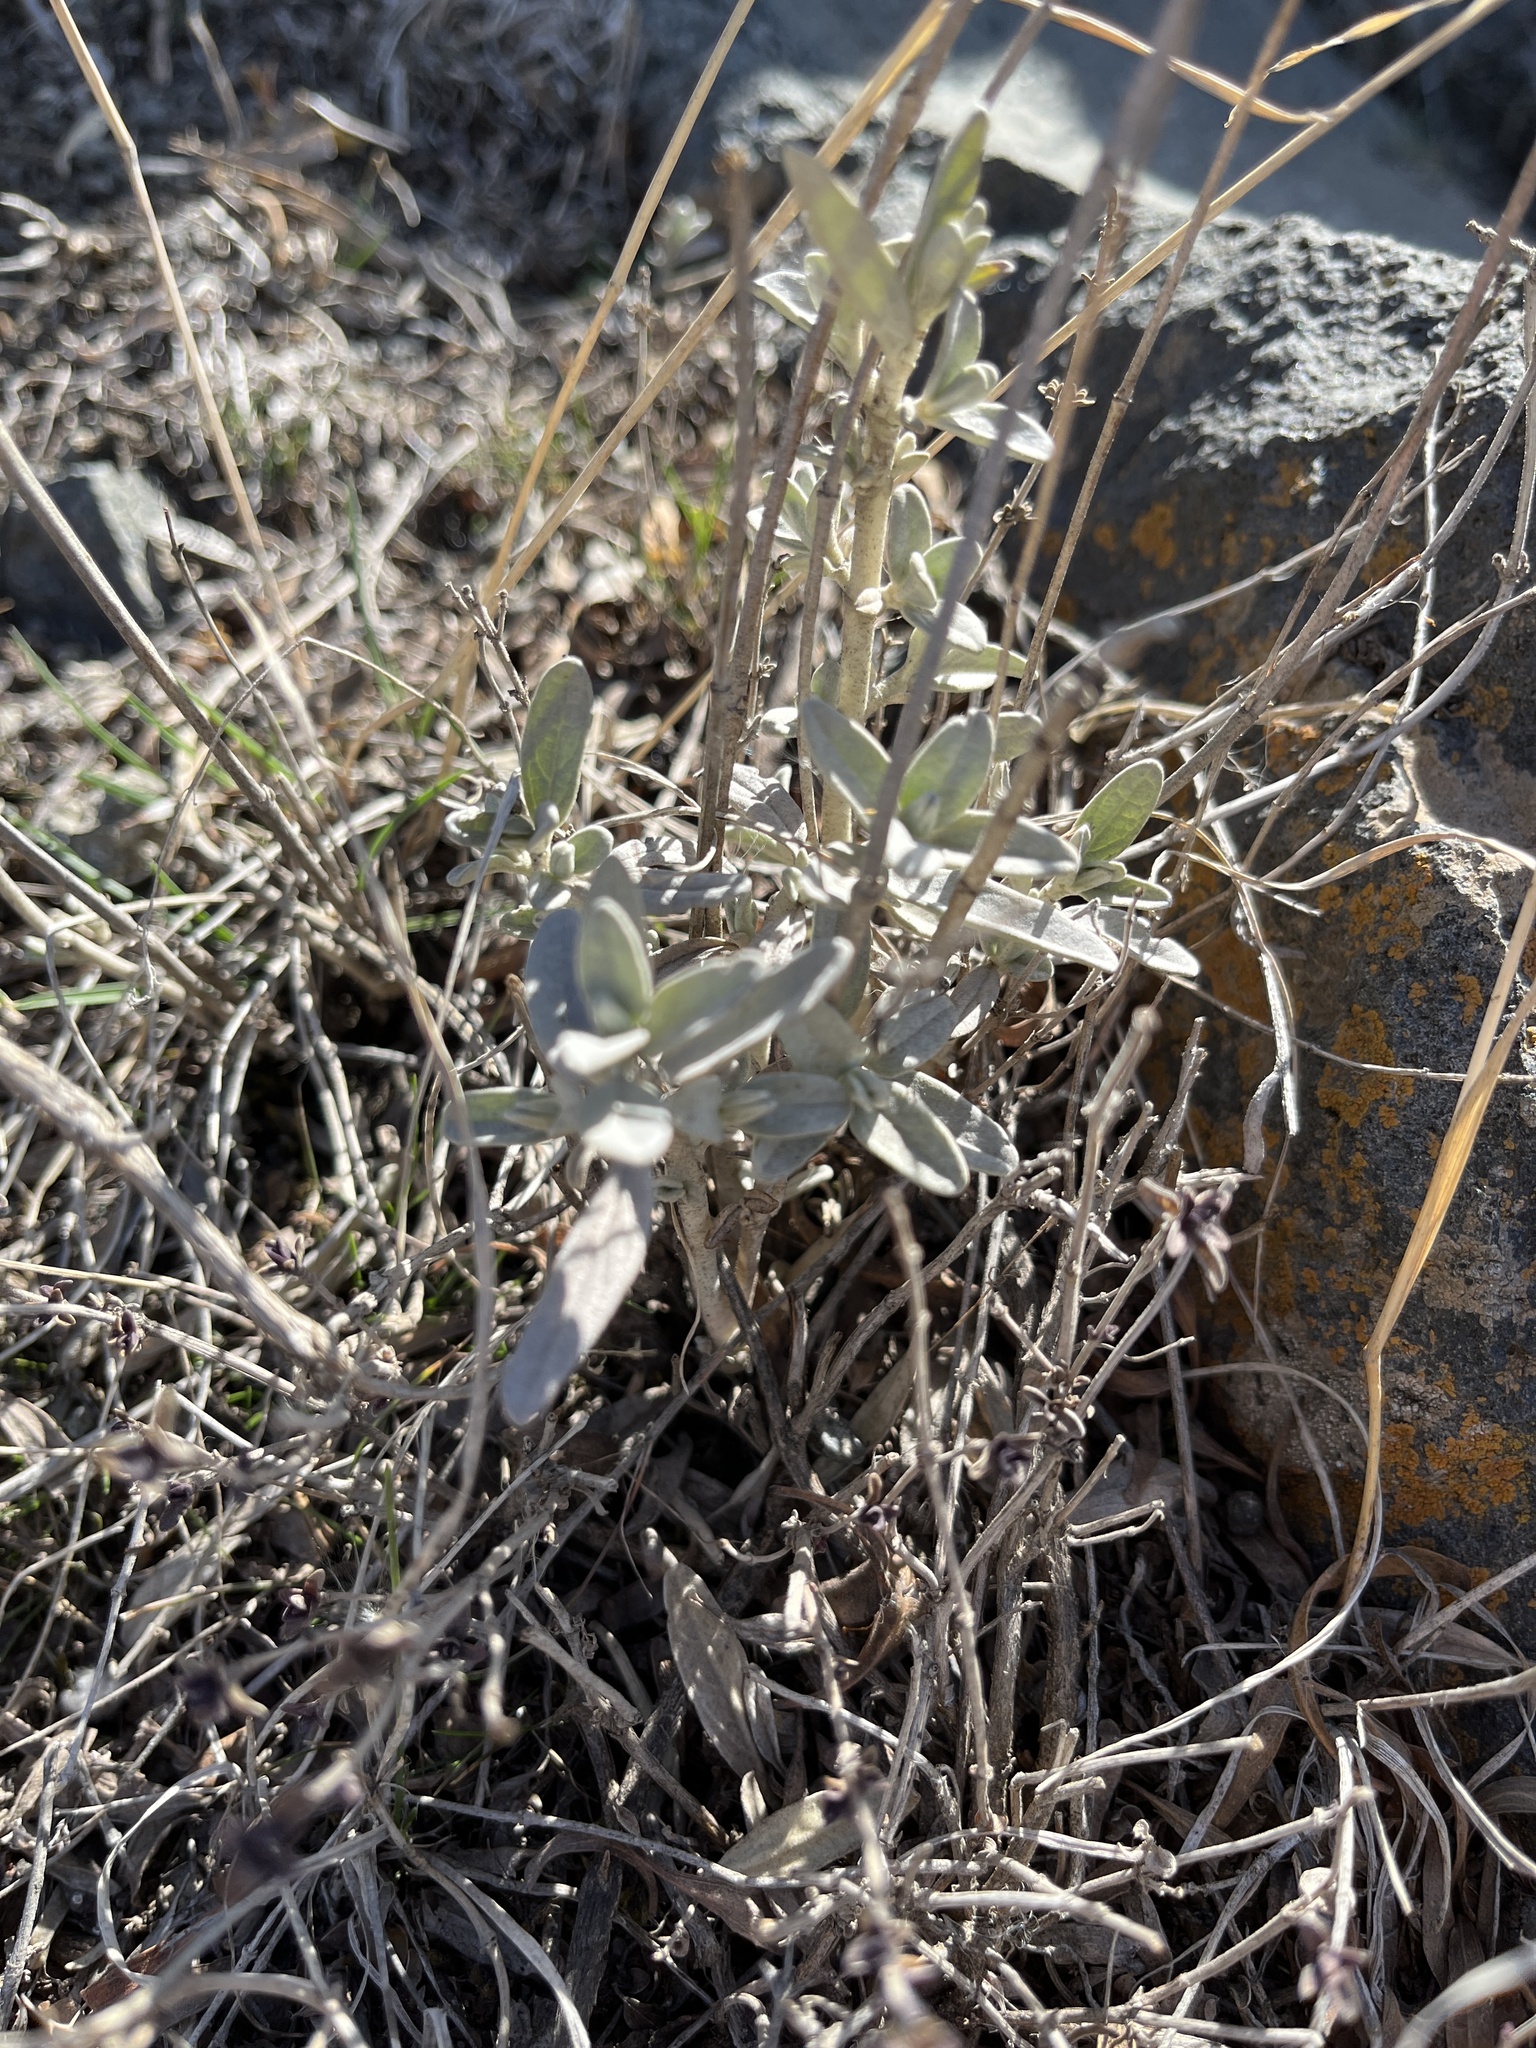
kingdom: Plantae
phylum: Tracheophyta
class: Magnoliopsida
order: Lamiales
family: Lamiaceae
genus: Stachys
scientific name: Stachys inflata
